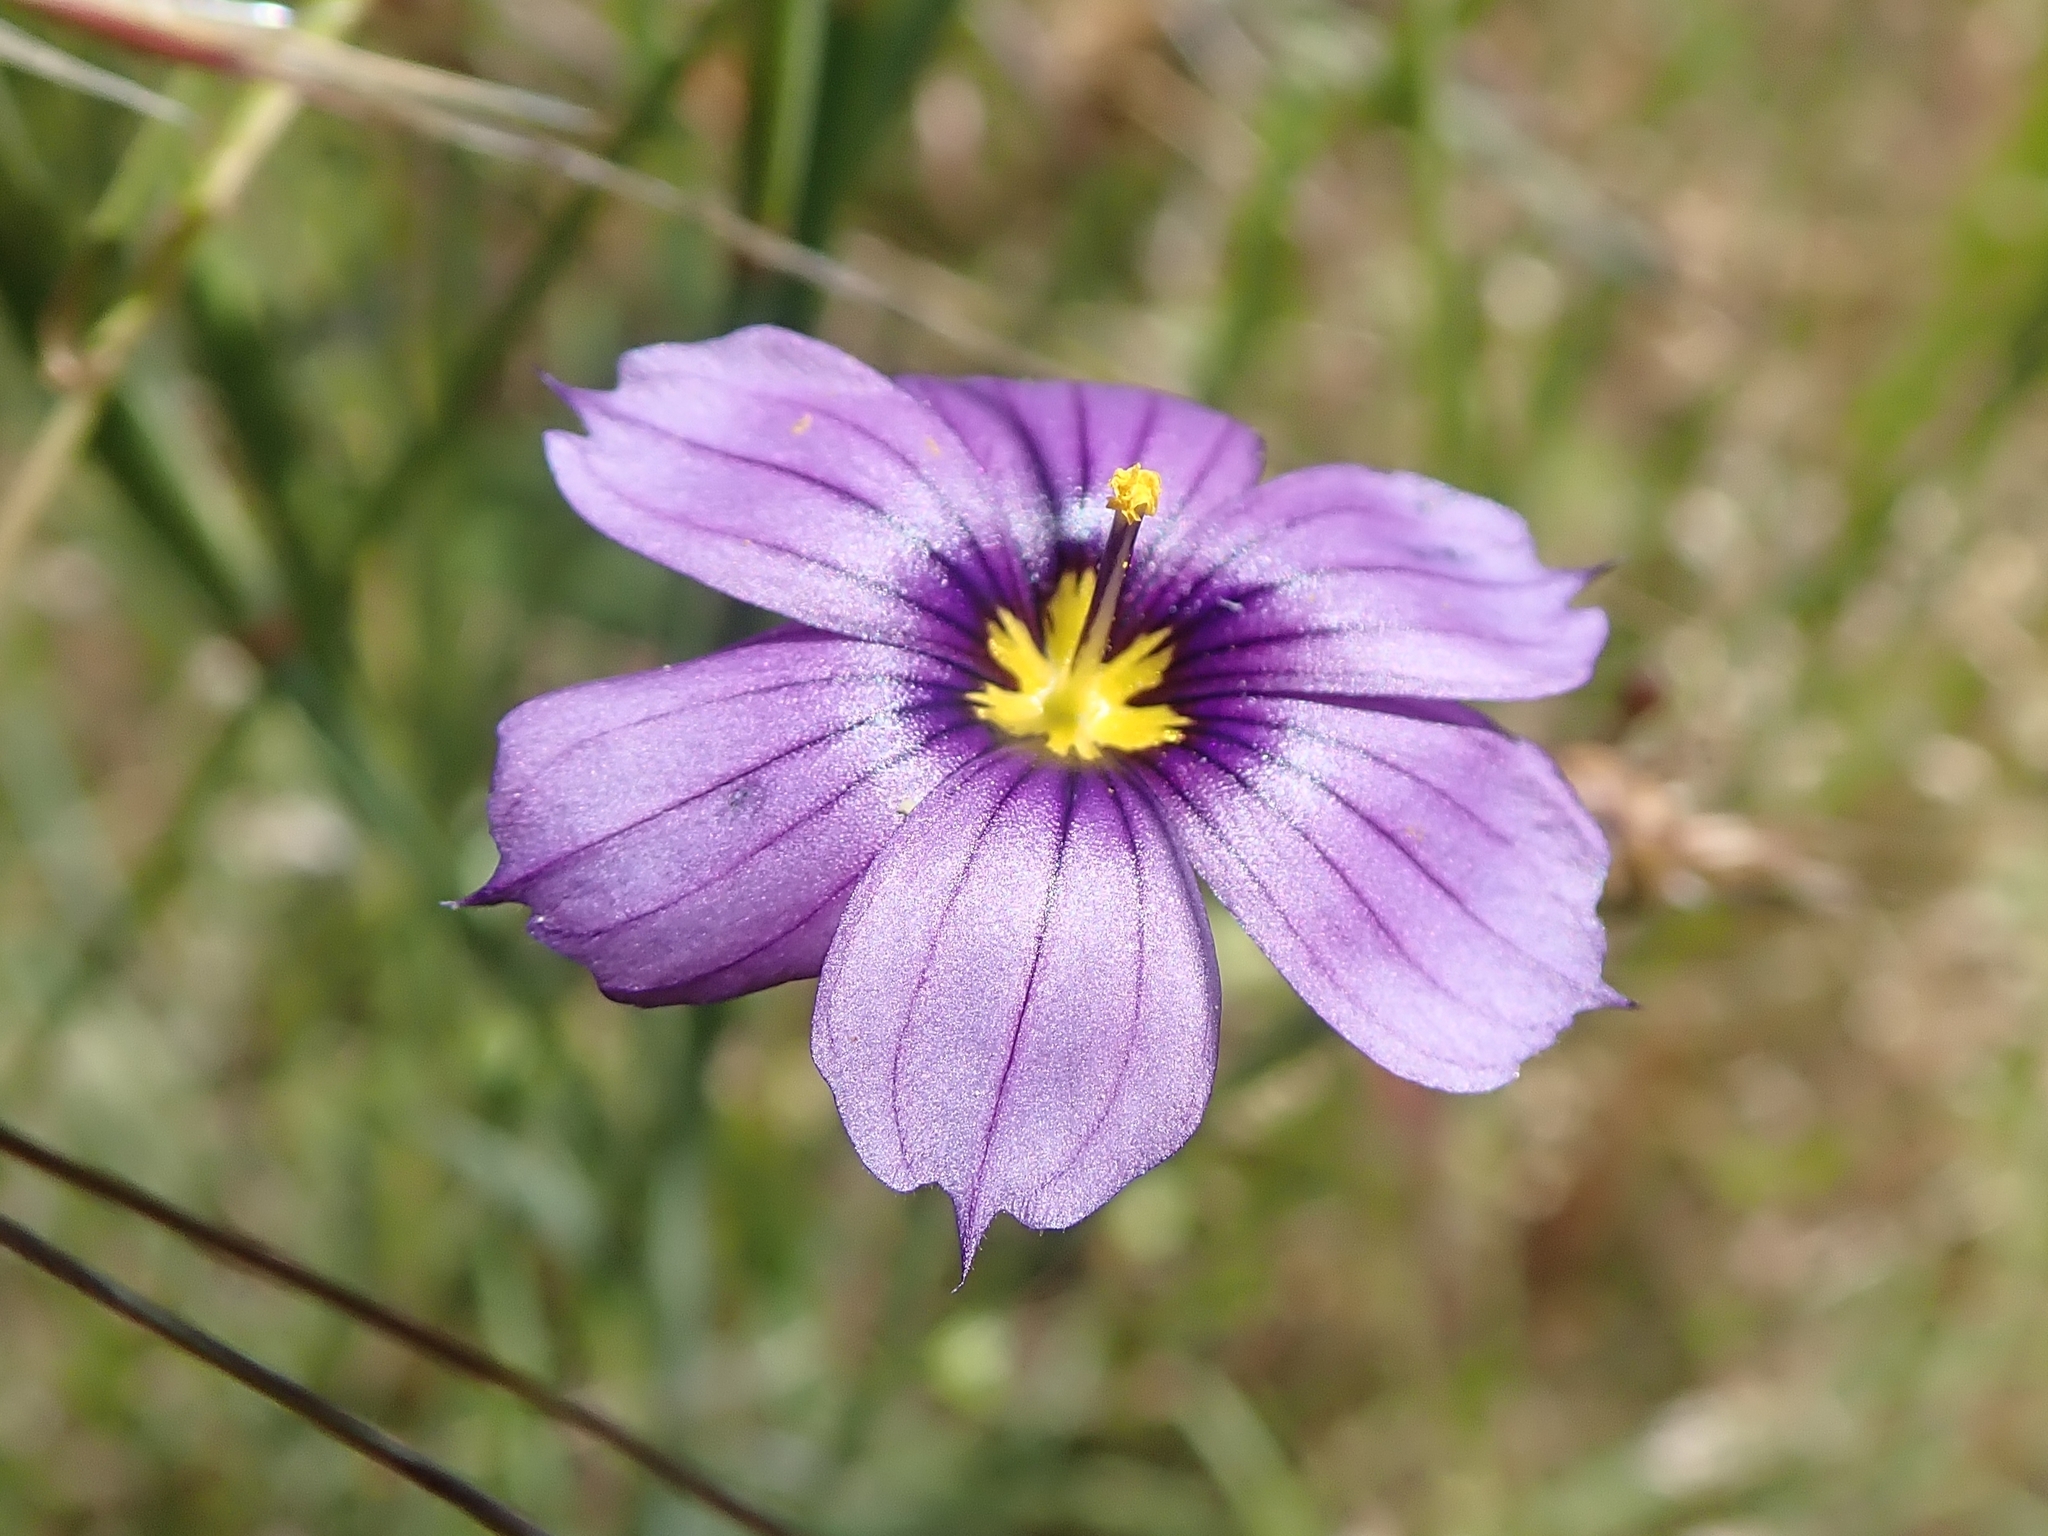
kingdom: Plantae
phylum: Tracheophyta
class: Liliopsida
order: Asparagales
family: Iridaceae
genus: Sisyrinchium
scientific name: Sisyrinchium bellum
